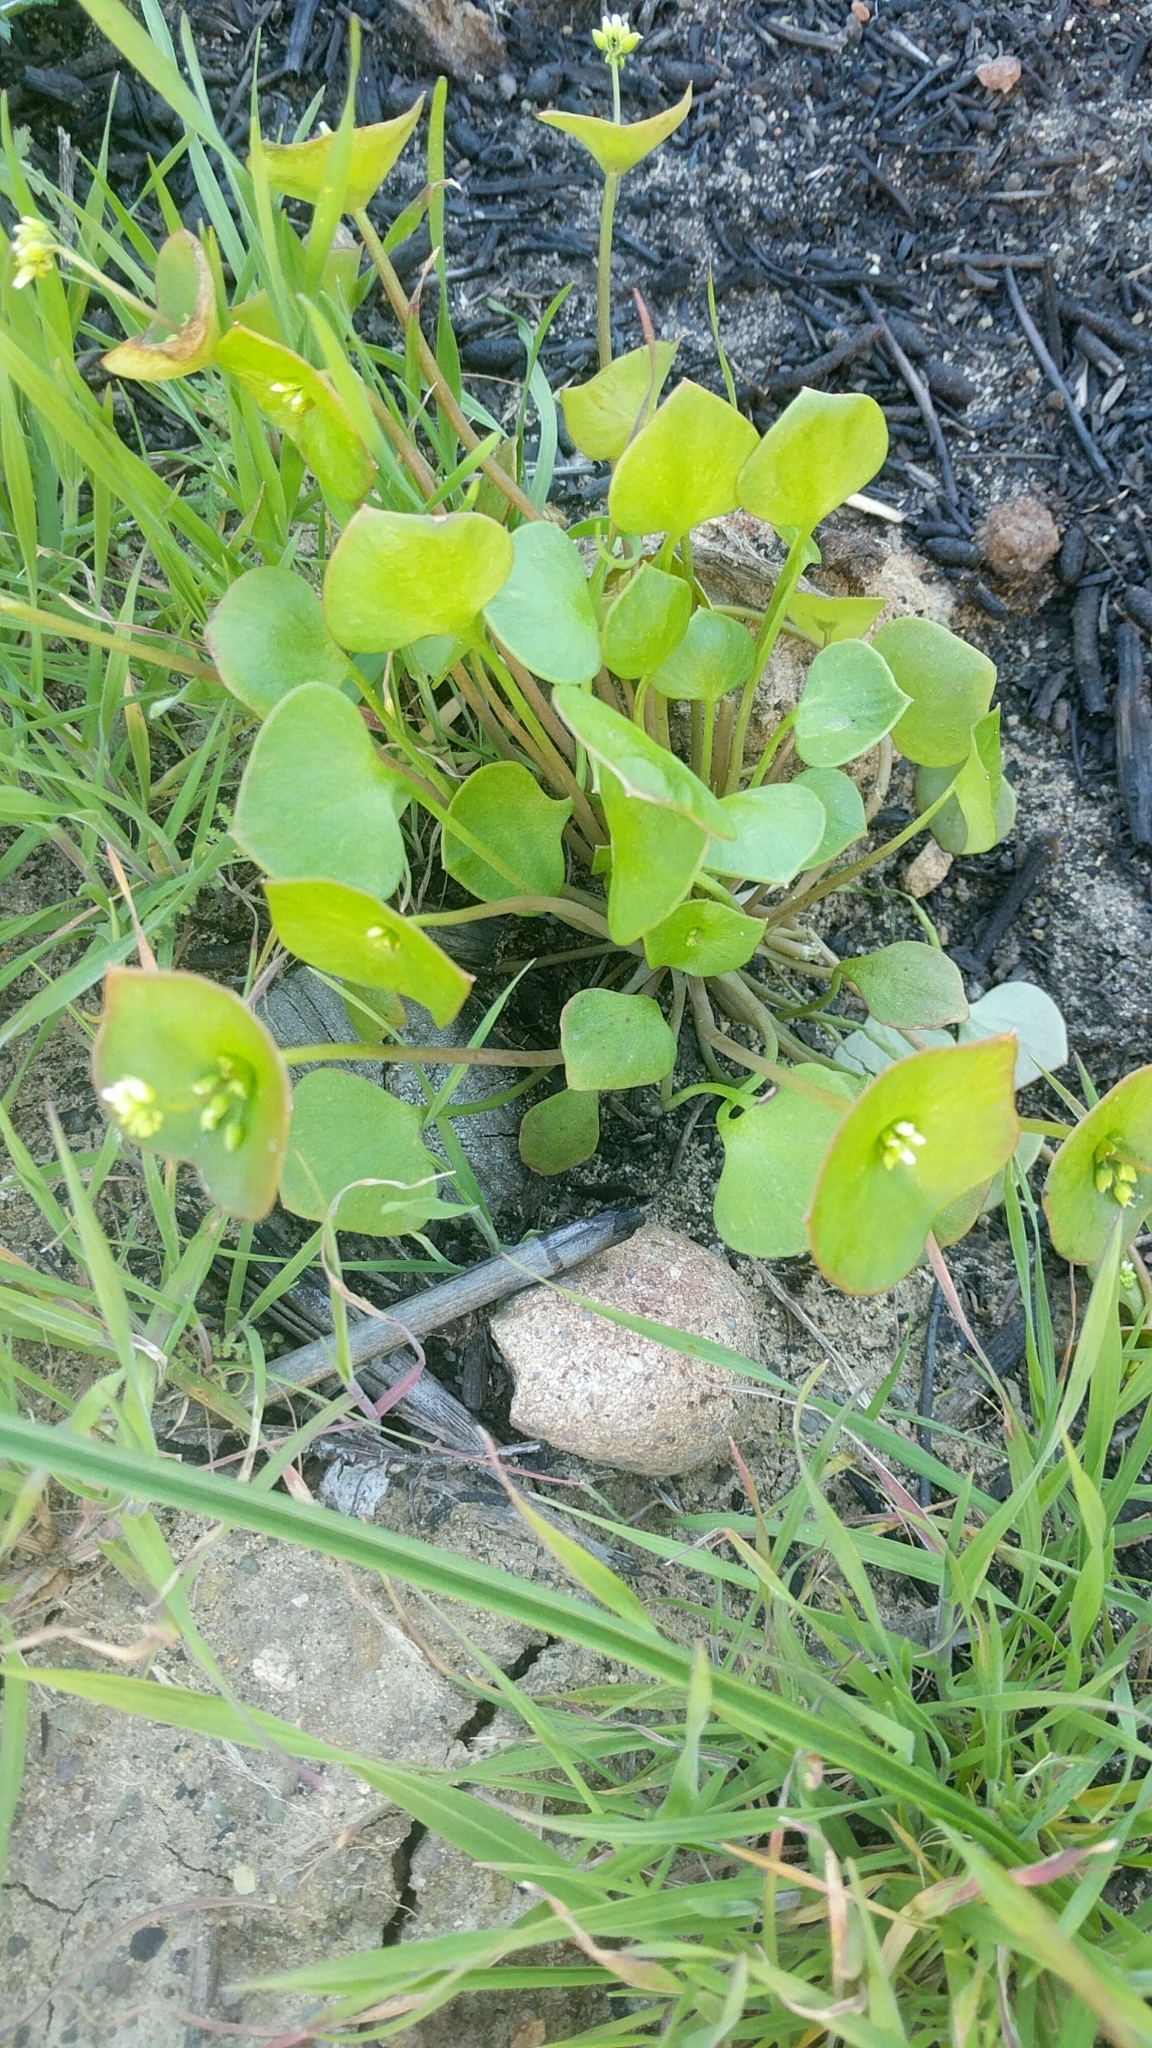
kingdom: Plantae
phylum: Tracheophyta
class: Magnoliopsida
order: Caryophyllales
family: Montiaceae
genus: Claytonia
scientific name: Claytonia perfoliata
